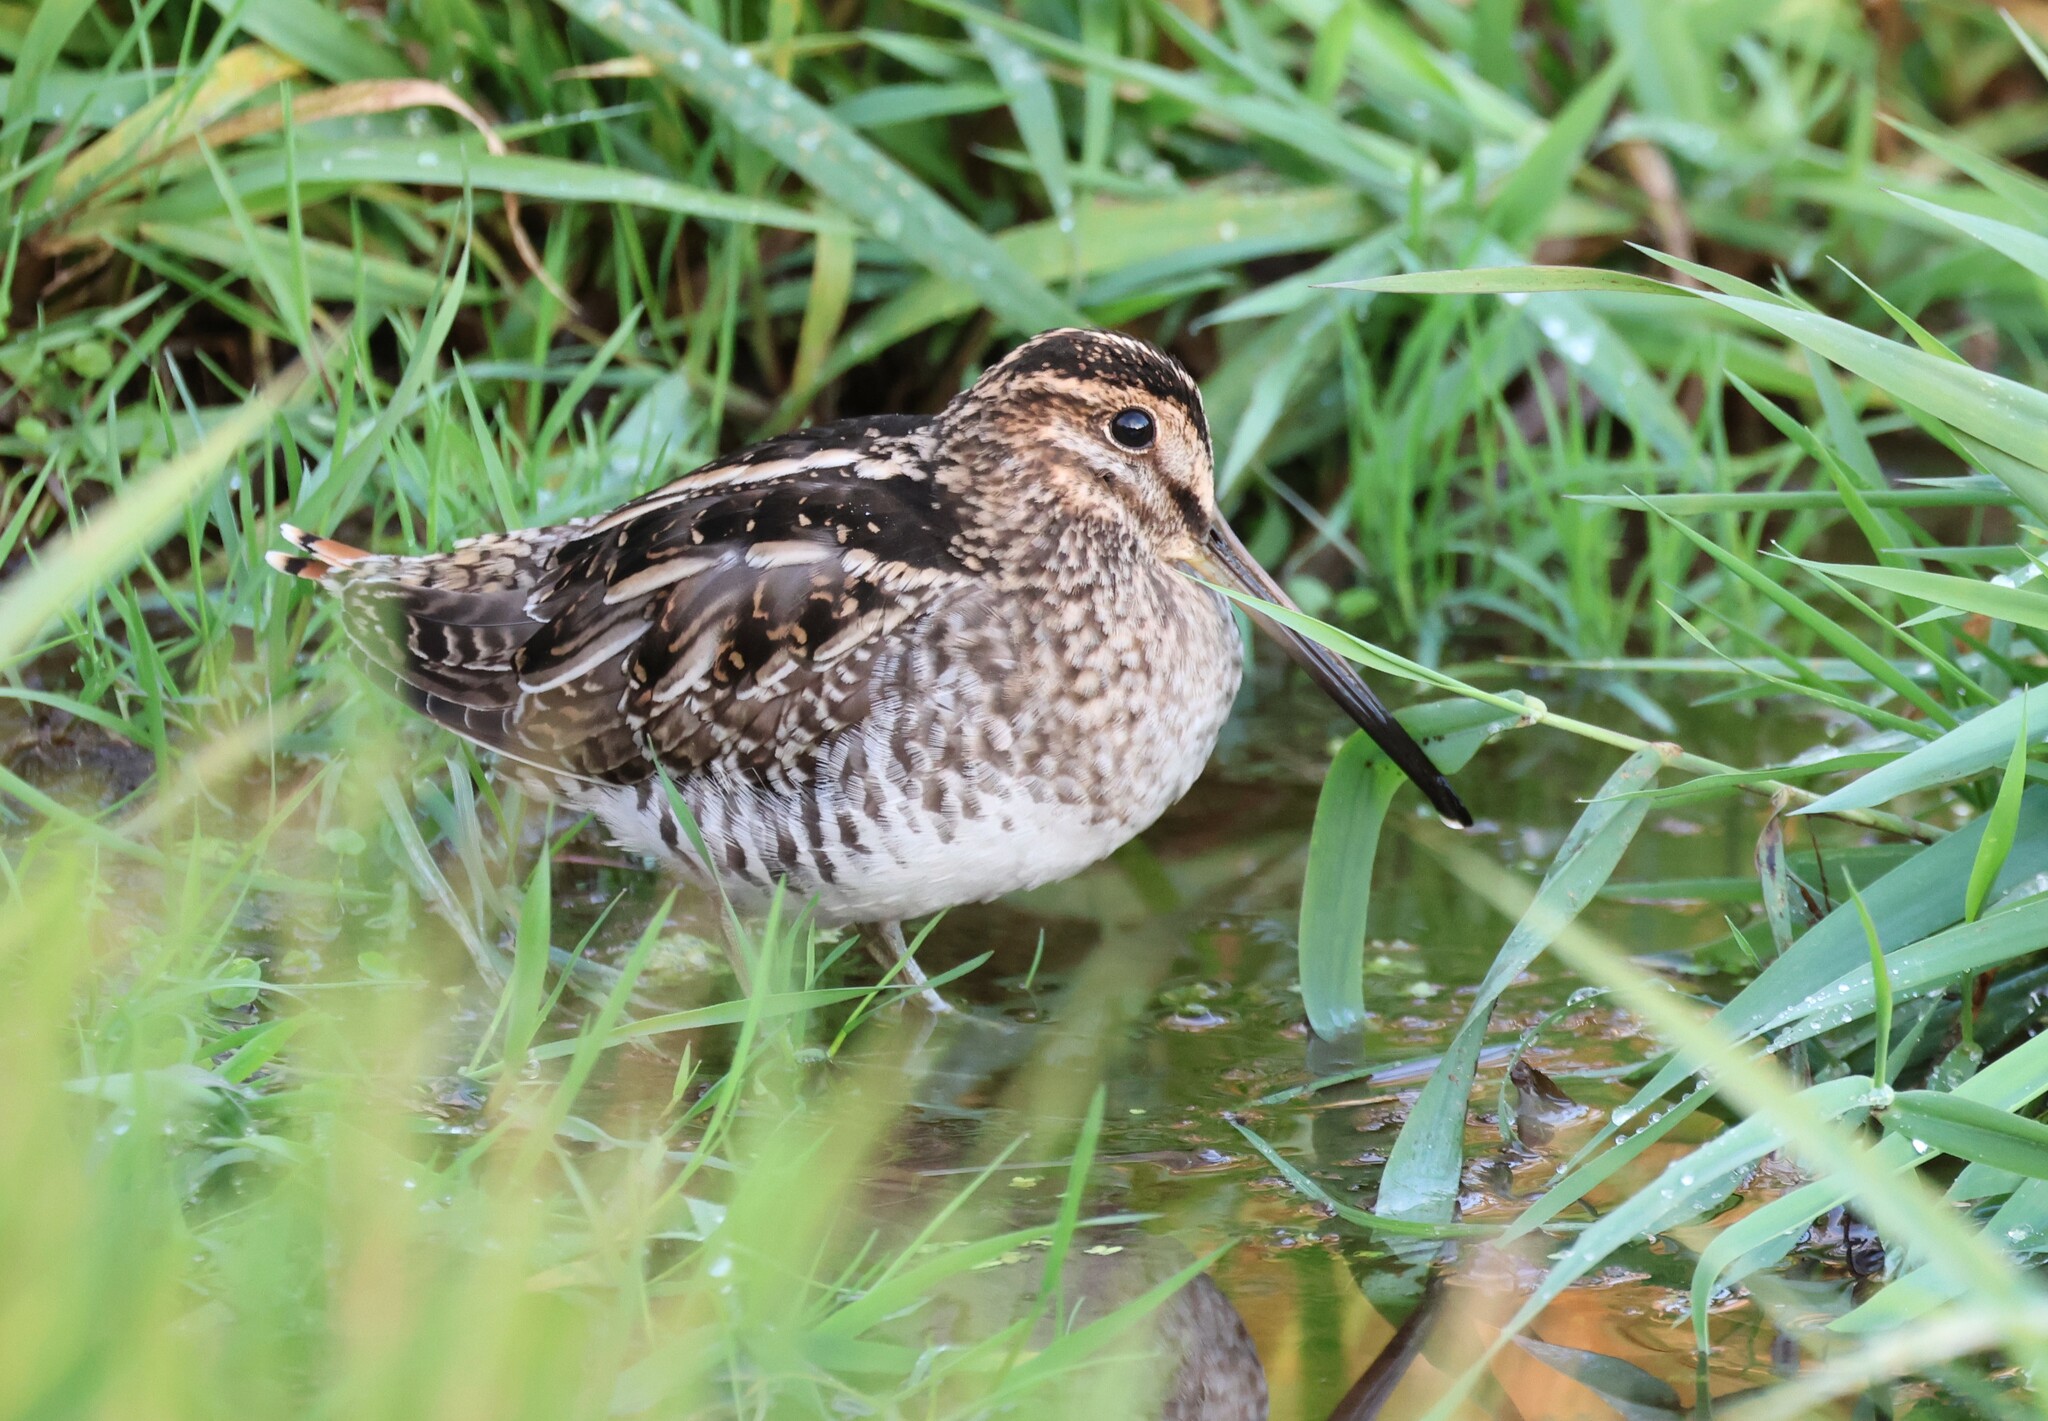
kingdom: Animalia
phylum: Chordata
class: Aves
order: Charadriiformes
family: Scolopacidae
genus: Gallinago
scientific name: Gallinago delicata
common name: Wilson's snipe
